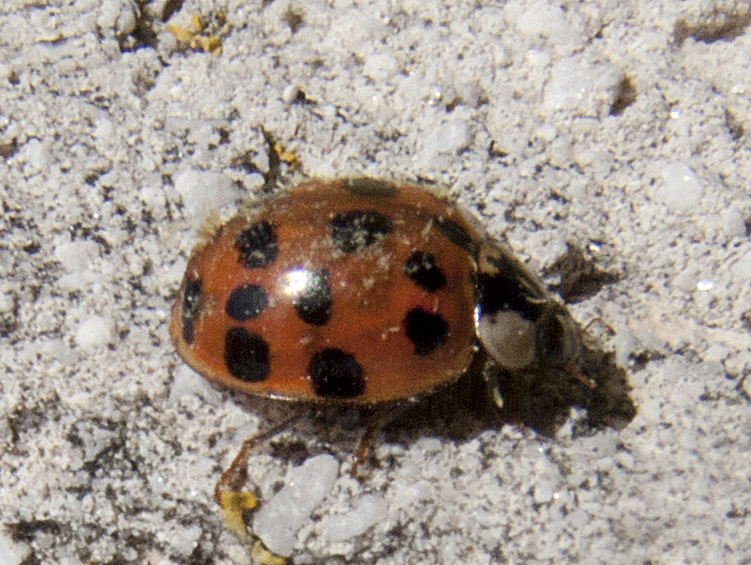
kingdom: Fungi
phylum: Ascomycota
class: Laboulbeniomycetes
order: Laboulbeniales
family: Laboulbeniaceae
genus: Hesperomyces
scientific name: Hesperomyces harmoniae
